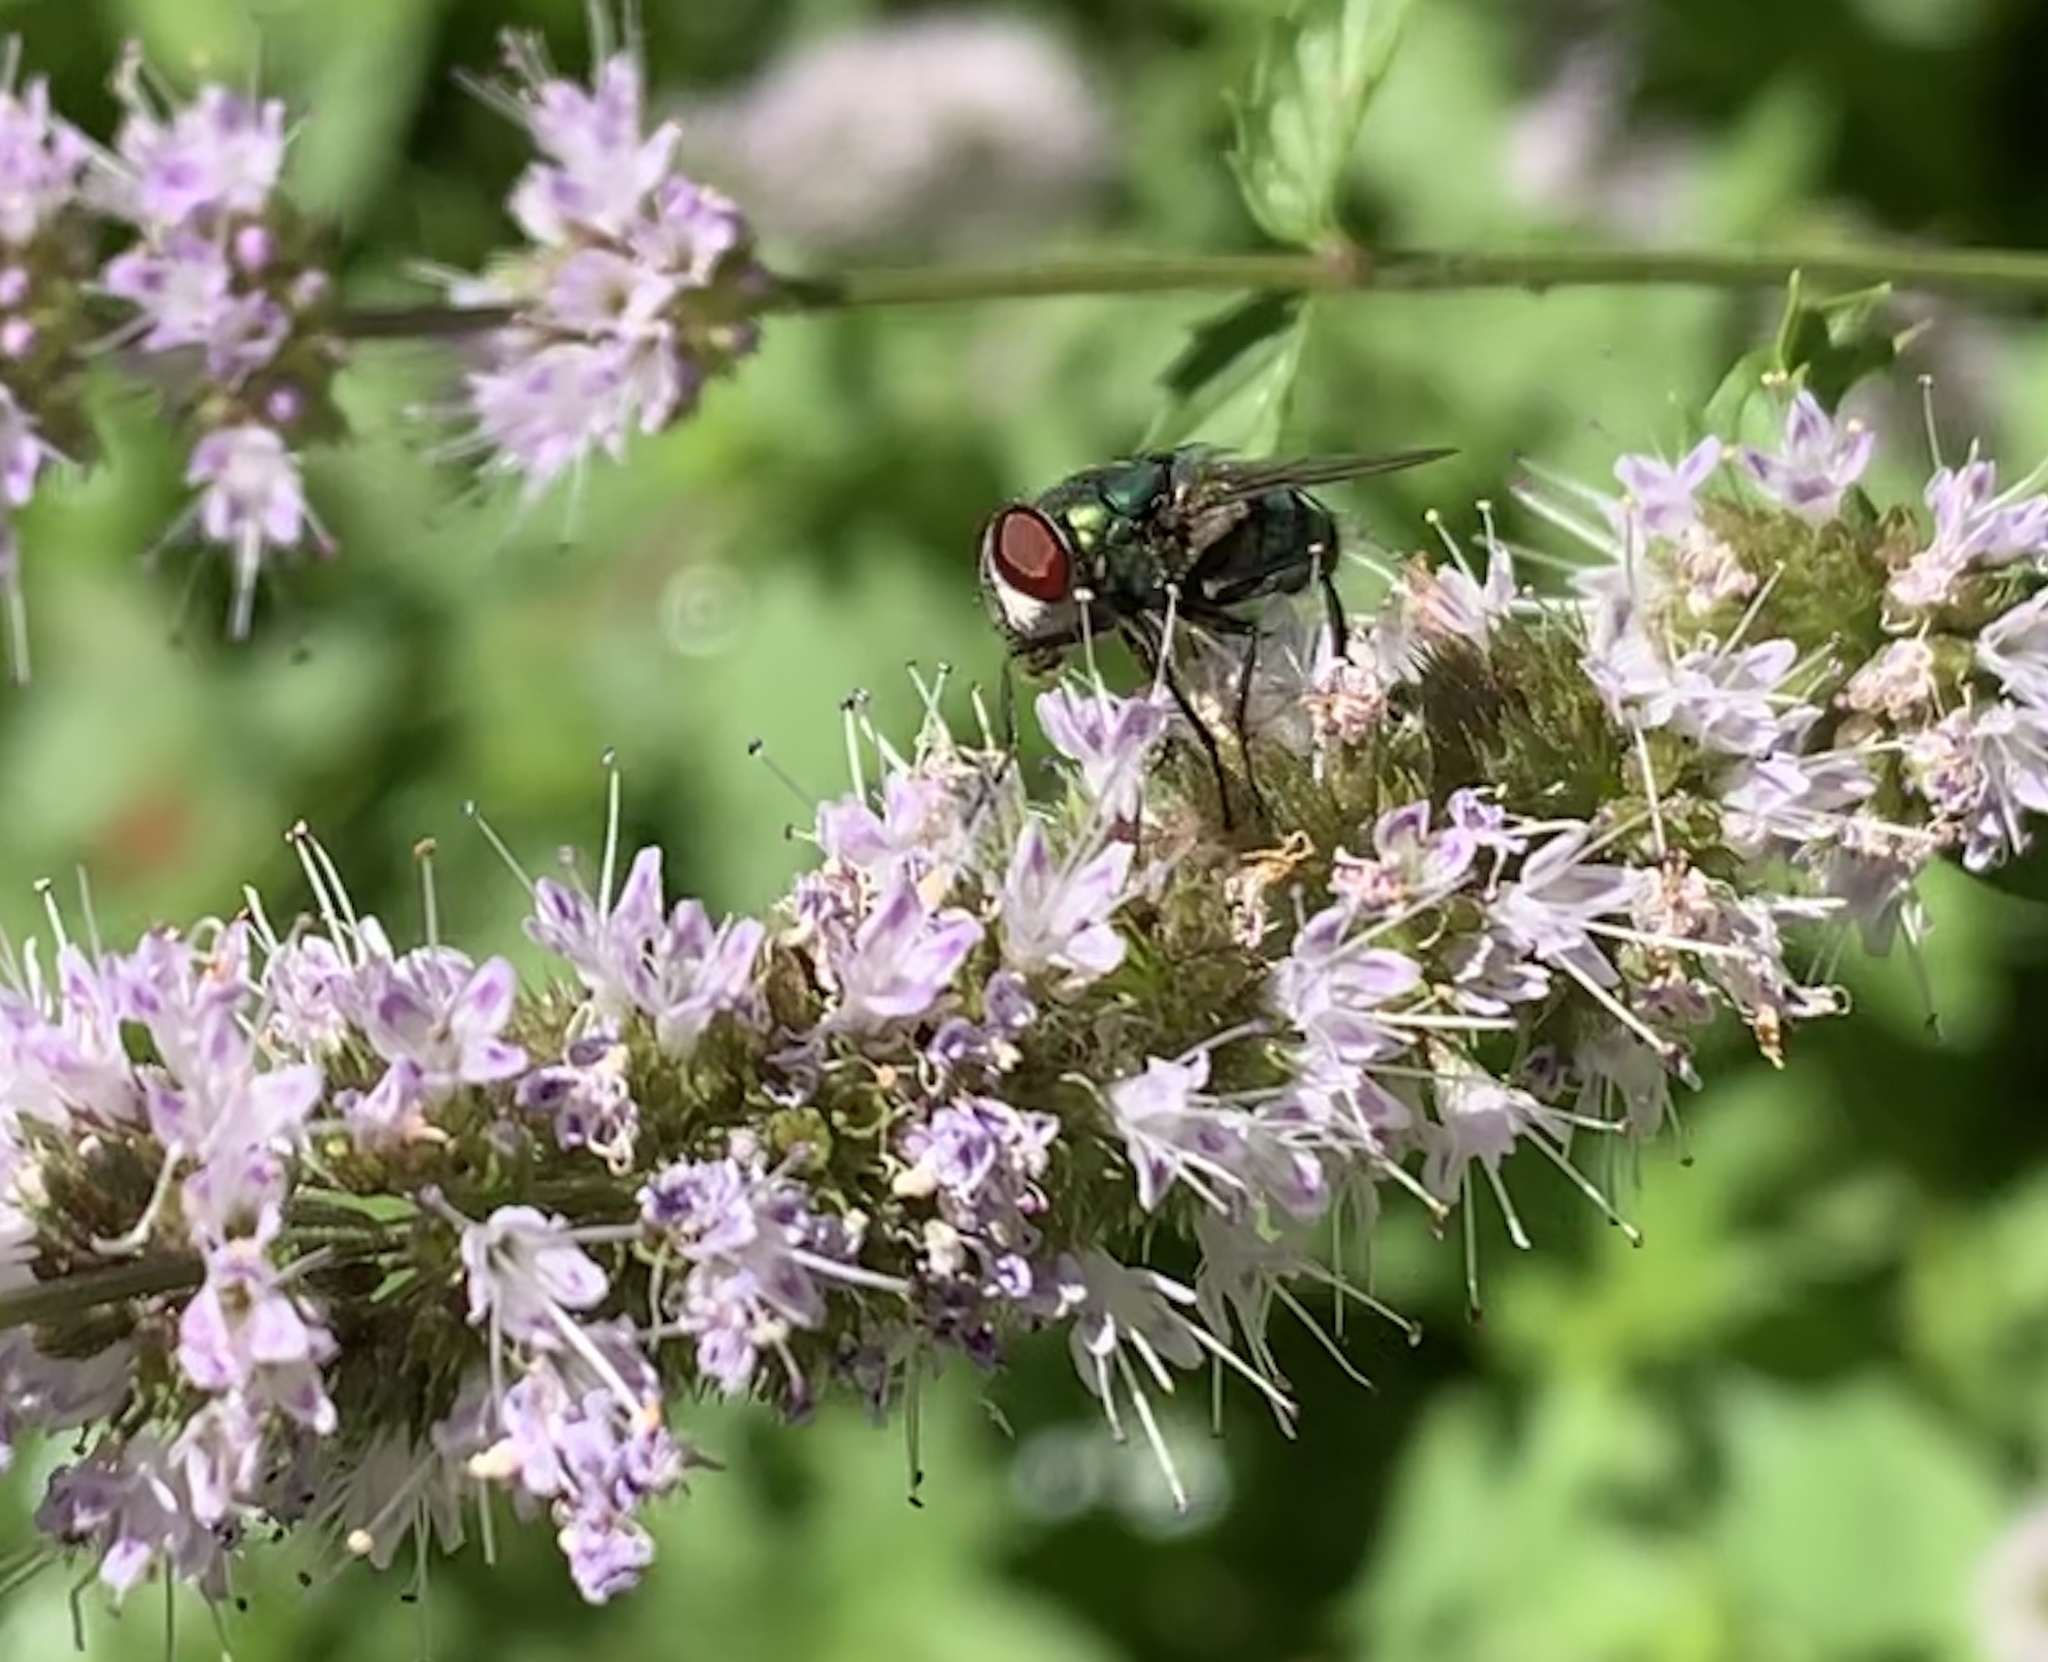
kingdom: Animalia
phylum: Arthropoda
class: Insecta
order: Diptera
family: Calliphoridae
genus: Chrysomya
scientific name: Chrysomya albiceps
